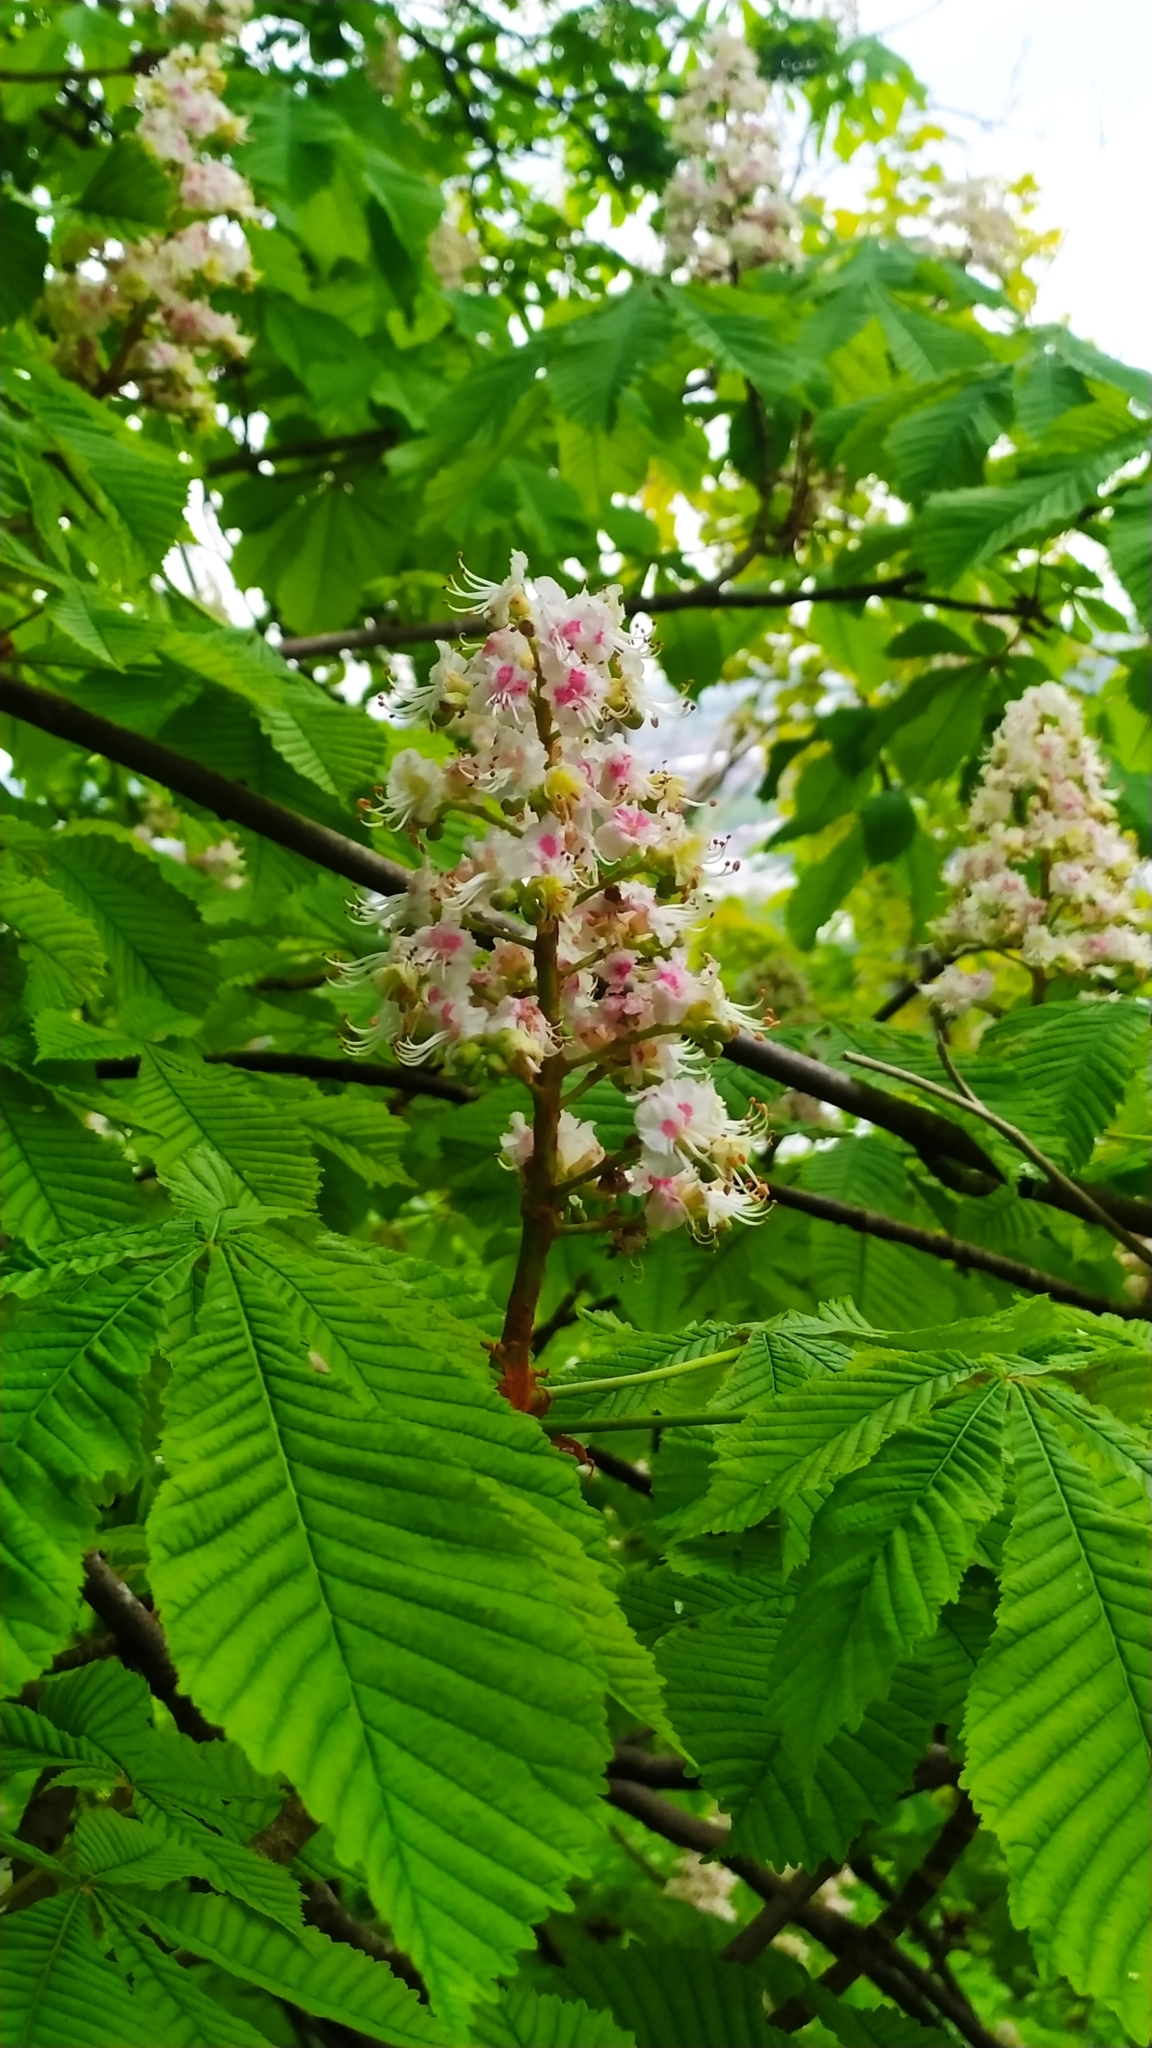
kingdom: Plantae
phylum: Tracheophyta
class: Magnoliopsida
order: Sapindales
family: Sapindaceae
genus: Aesculus
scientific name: Aesculus hippocastanum
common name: Horse-chestnut
